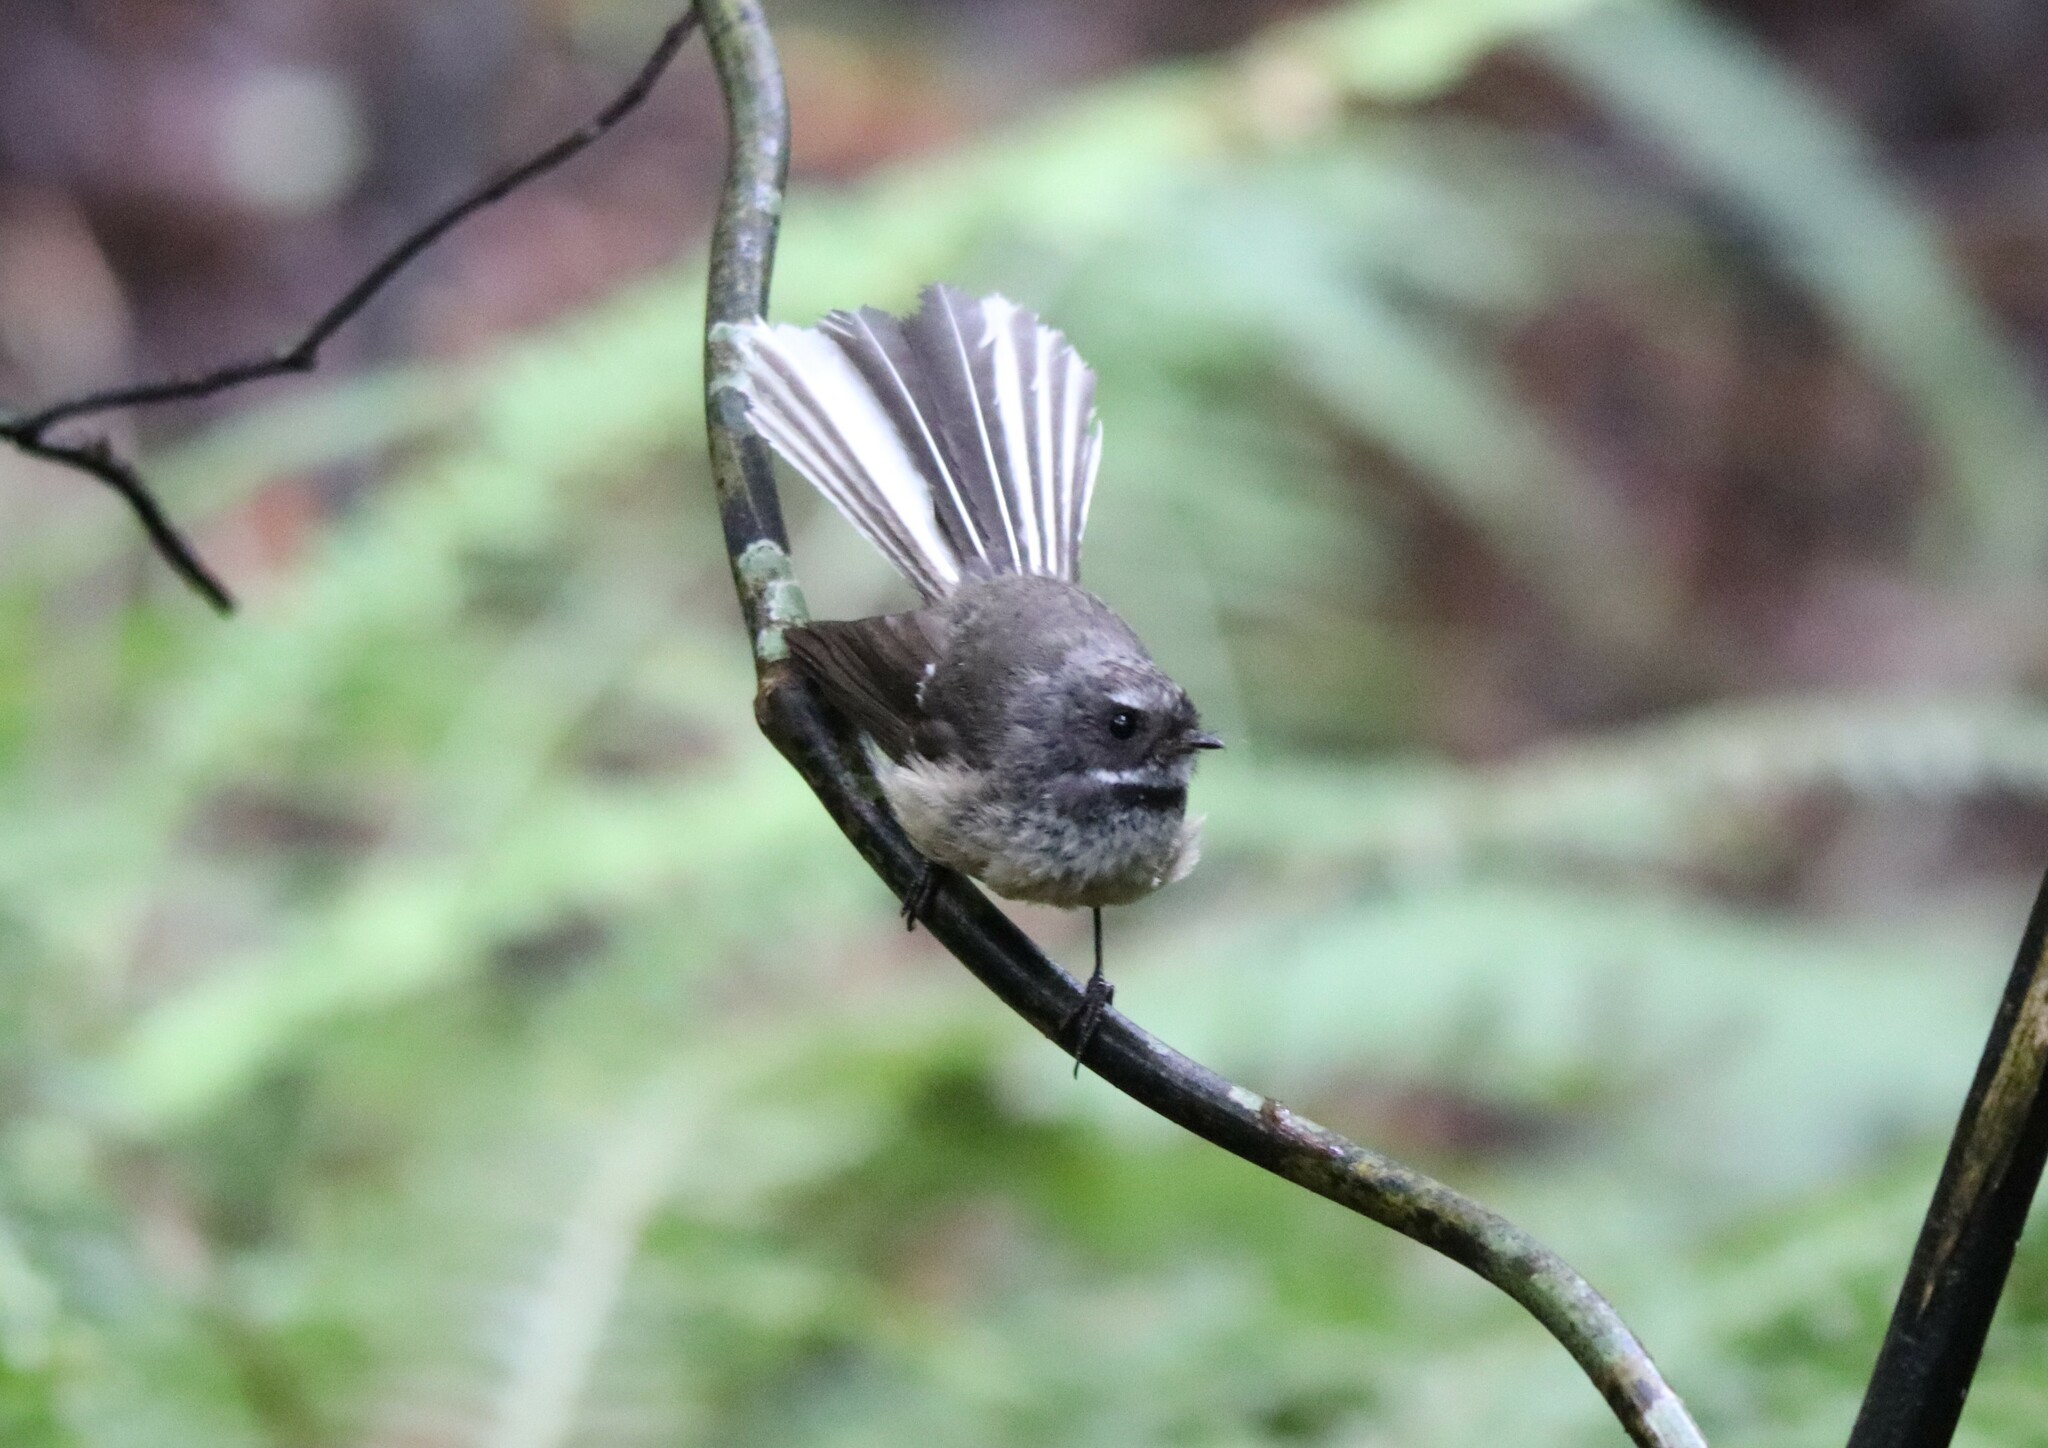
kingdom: Animalia
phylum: Chordata
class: Aves
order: Passeriformes
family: Rhipiduridae
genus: Rhipidura
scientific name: Rhipidura fuliginosa
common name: New zealand fantail
